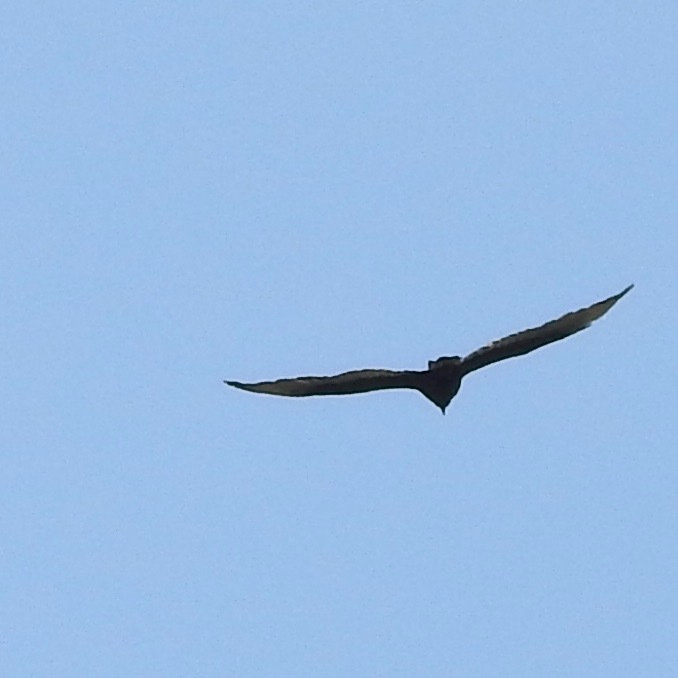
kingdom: Animalia
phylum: Chordata
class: Aves
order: Accipitriformes
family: Cathartidae
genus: Cathartes
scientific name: Cathartes aura
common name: Turkey vulture
